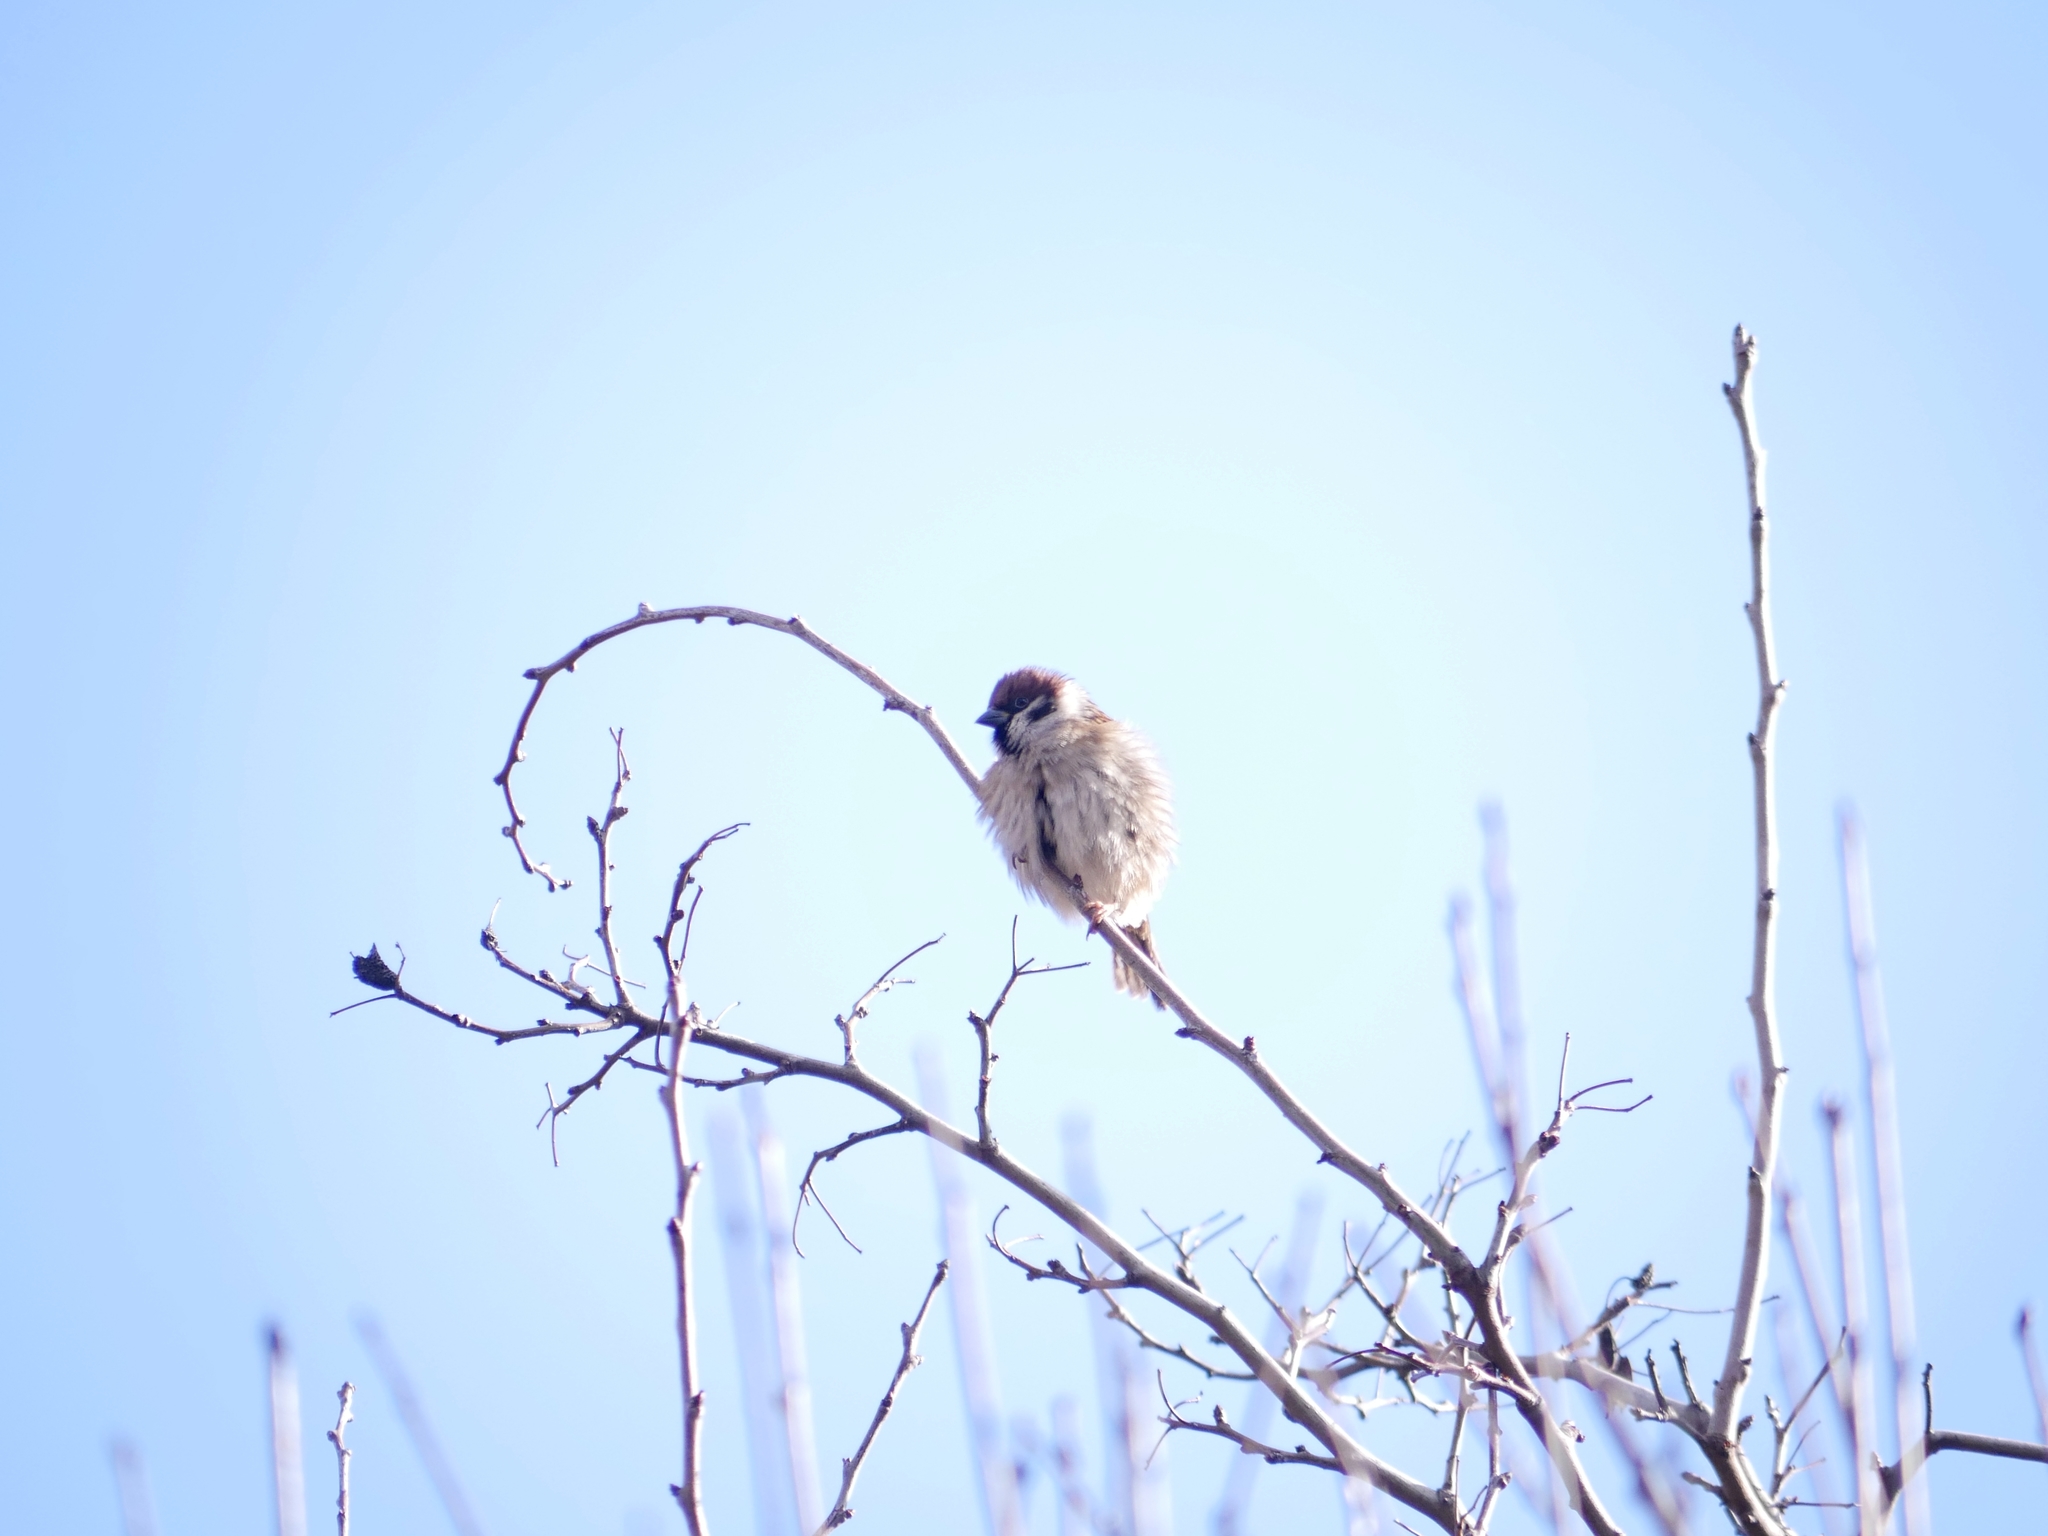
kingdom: Animalia
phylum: Chordata
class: Aves
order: Passeriformes
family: Passeridae
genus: Passer
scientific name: Passer montanus
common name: Eurasian tree sparrow
